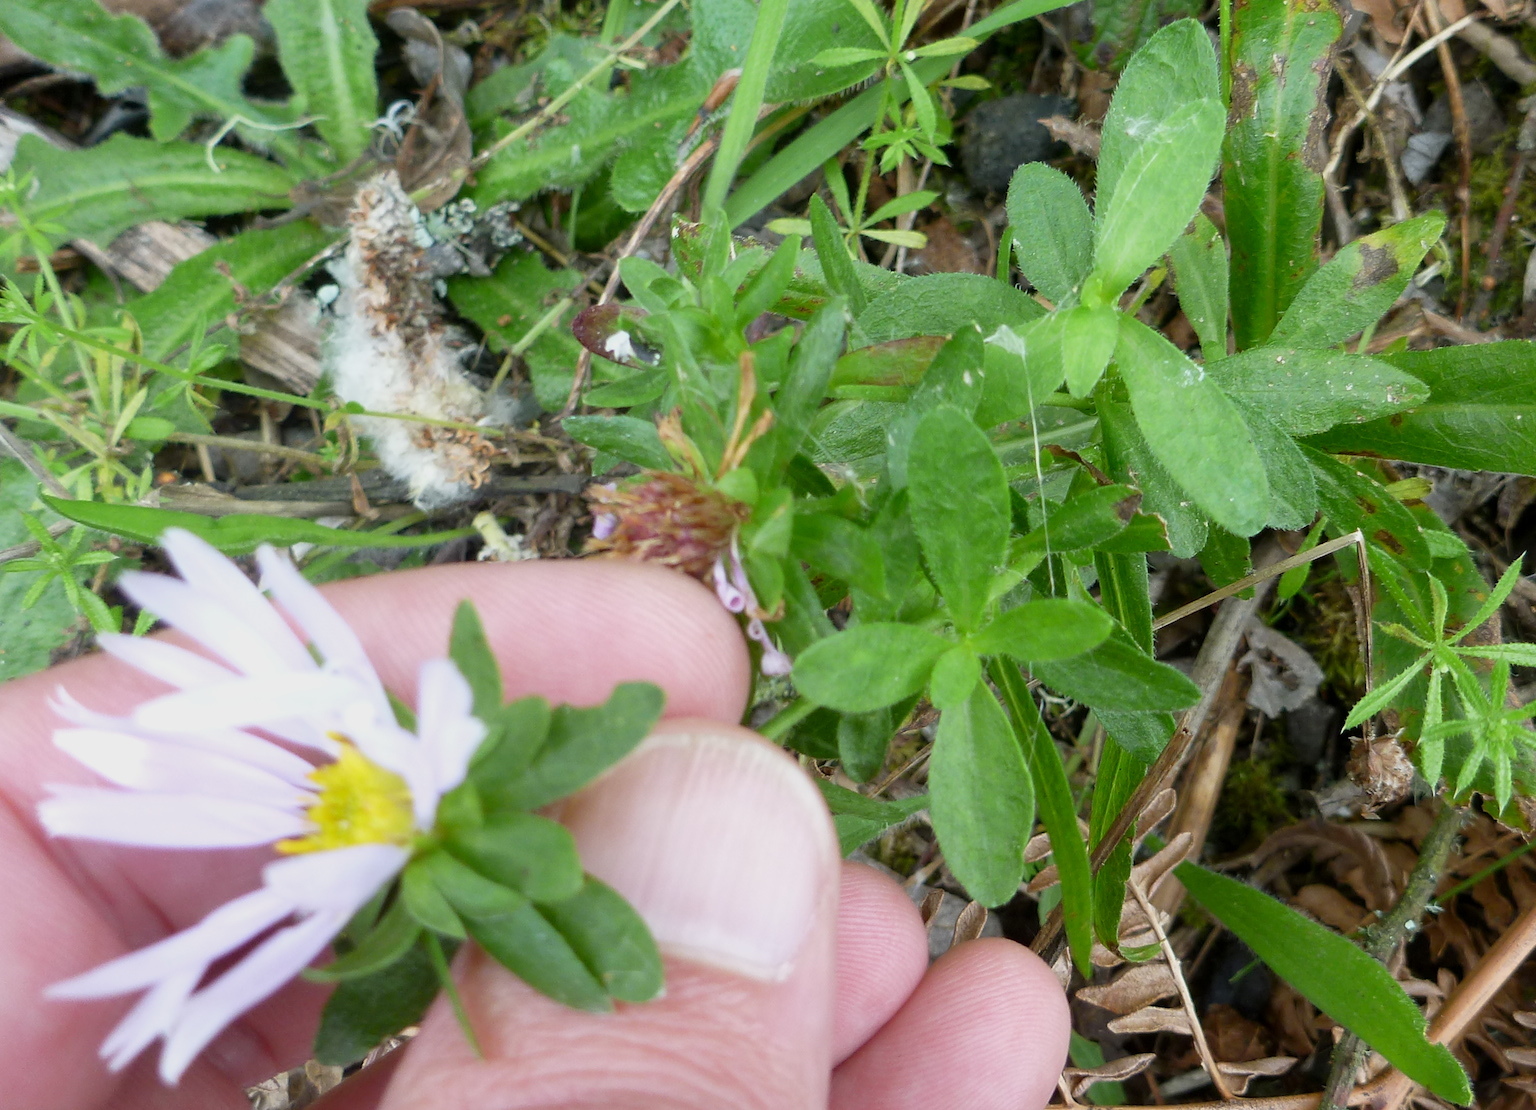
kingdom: Plantae
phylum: Tracheophyta
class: Magnoliopsida
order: Asterales
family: Asteraceae
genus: Symphyotrichum
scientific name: Symphyotrichum chilense
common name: Pacific aster
